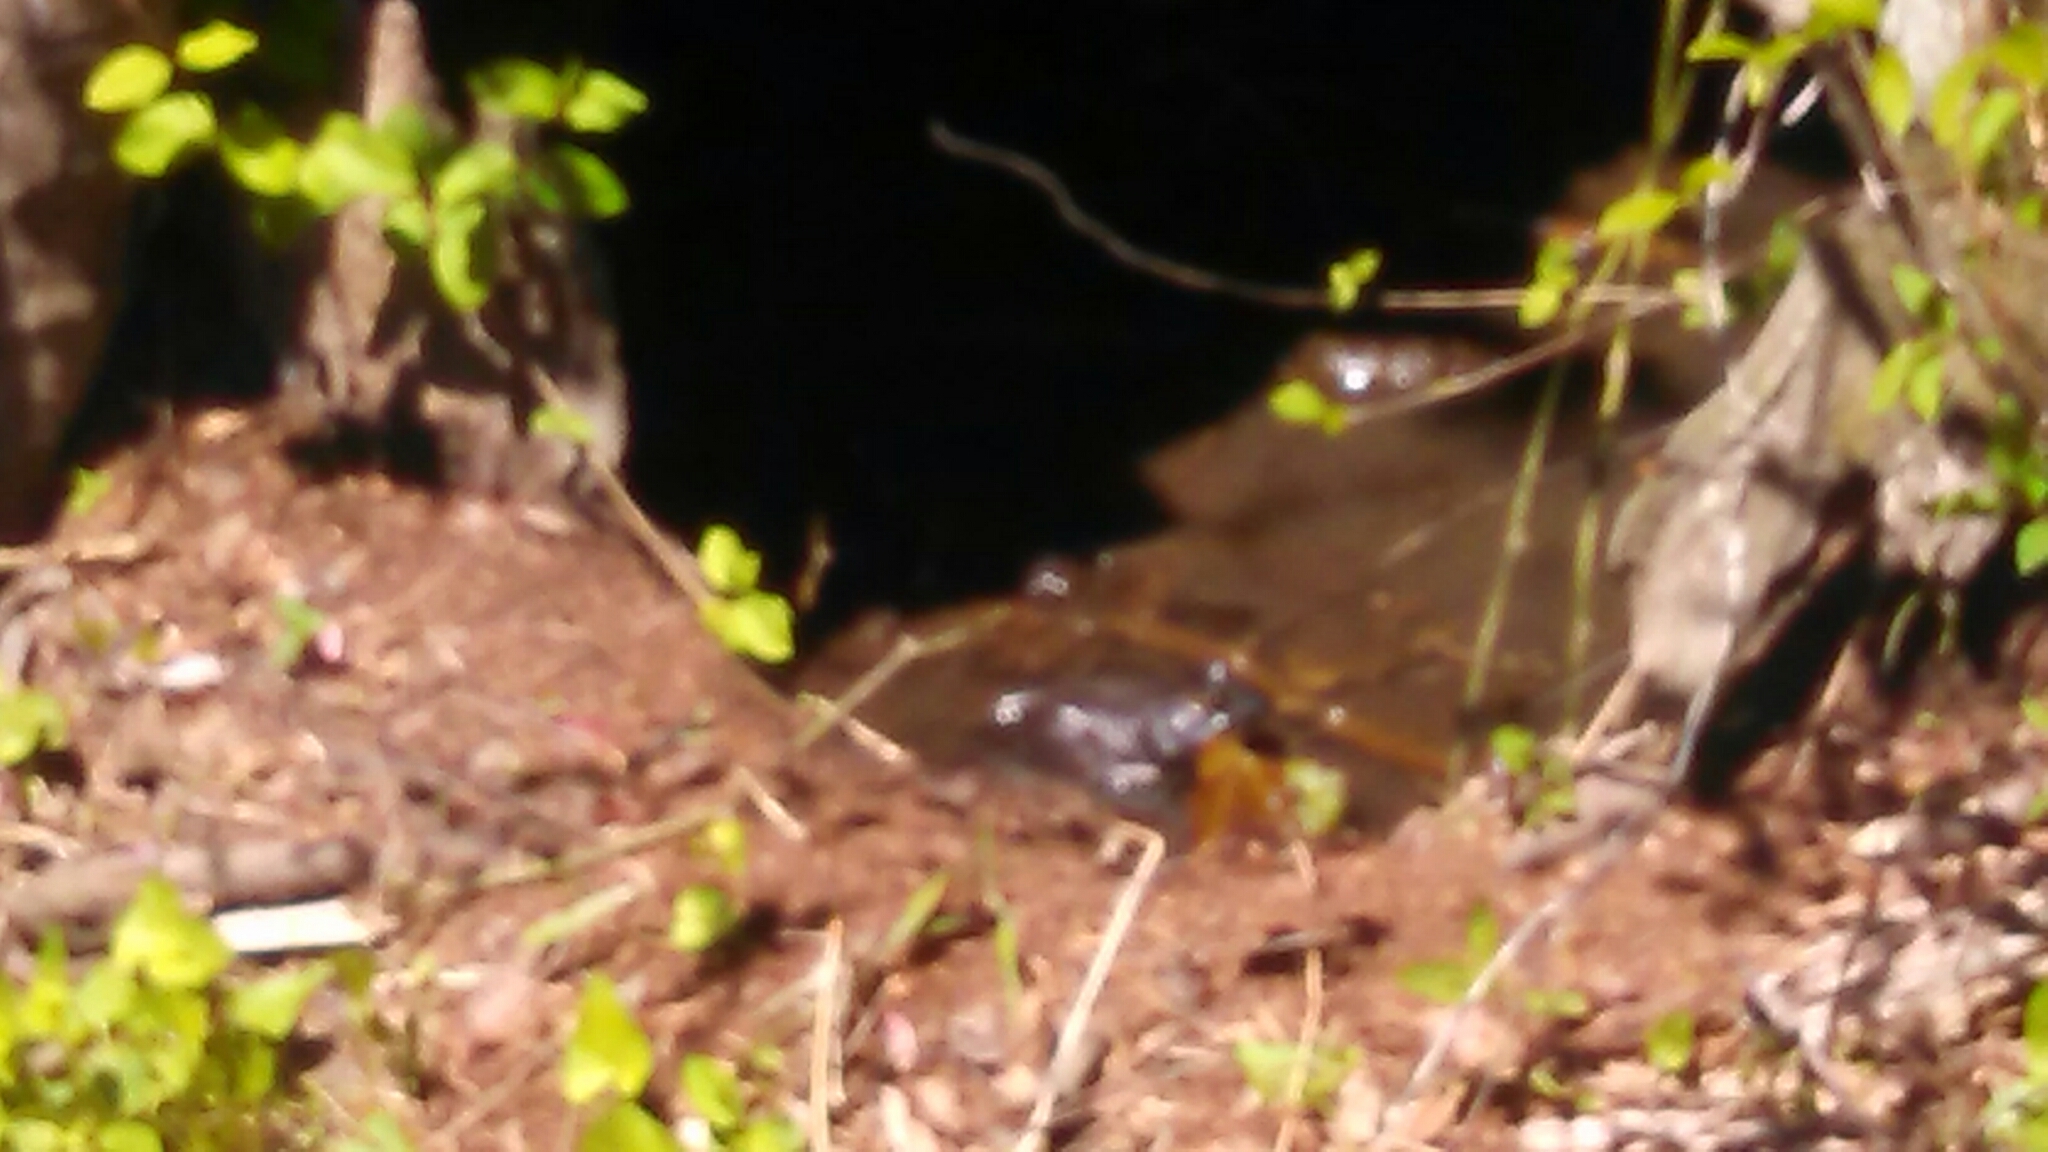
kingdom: Animalia
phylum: Chordata
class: Amphibia
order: Anura
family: Ranidae
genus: Lithobates
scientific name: Lithobates catesbeianus
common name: American bullfrog
